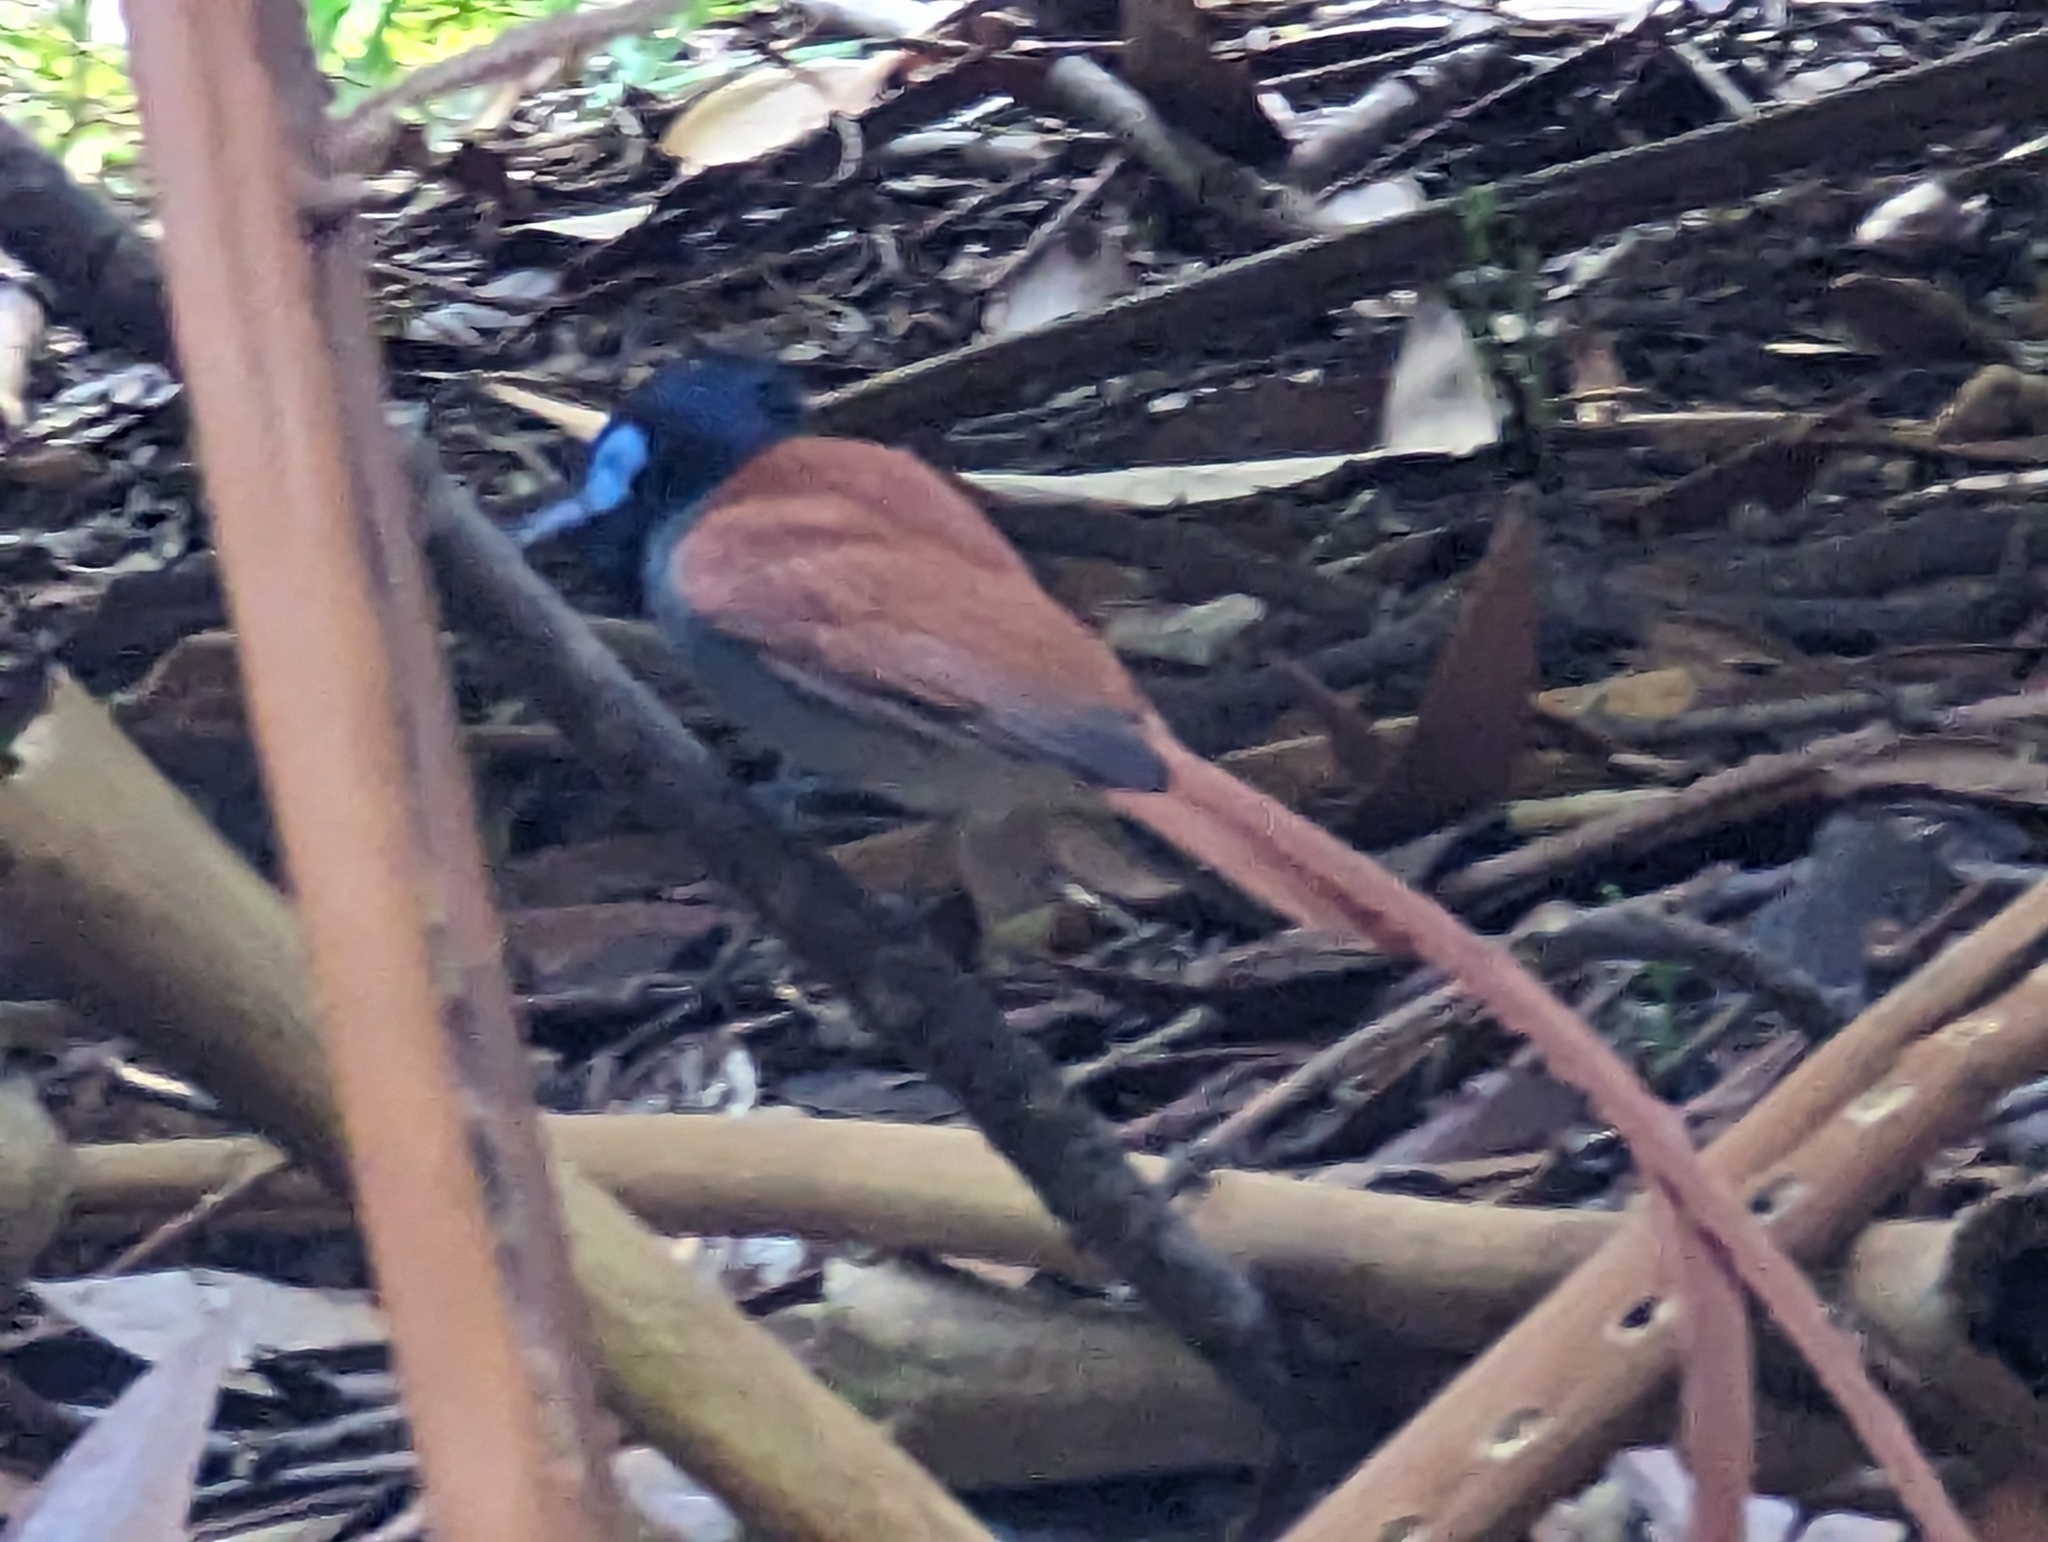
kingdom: Animalia
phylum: Chordata
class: Aves
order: Passeriformes
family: Monarchidae
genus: Terpsiphone
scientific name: Terpsiphone viridis
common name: African paradise flycatcher
